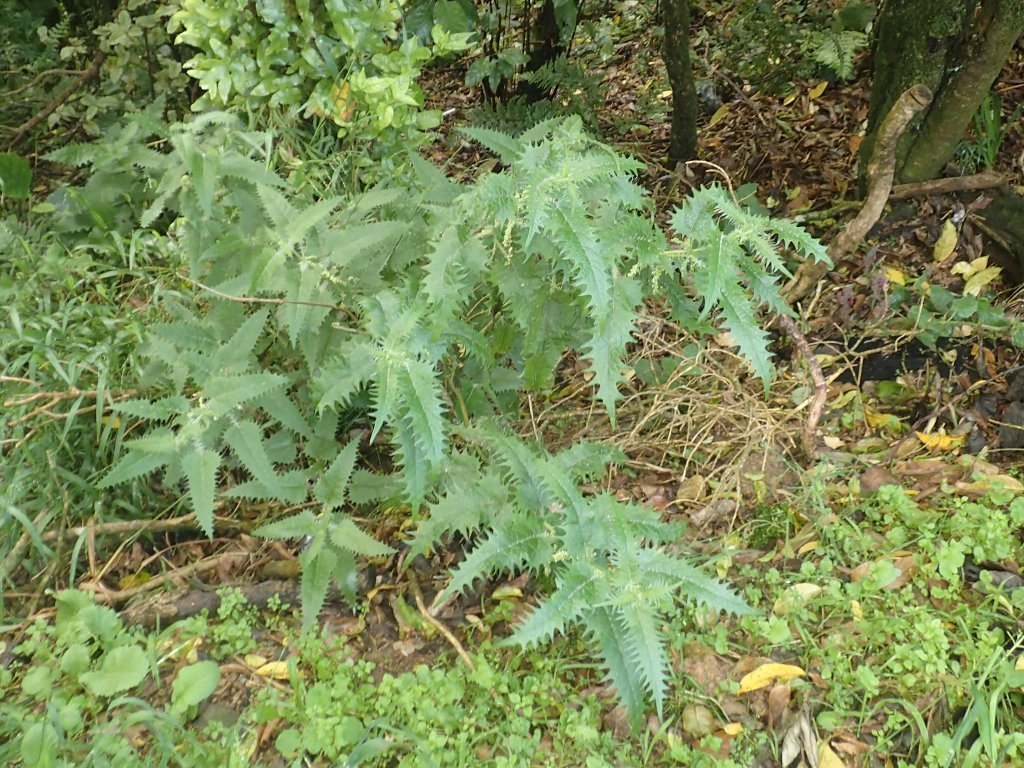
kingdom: Plantae
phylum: Tracheophyta
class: Magnoliopsida
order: Rosales
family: Urticaceae
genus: Urtica
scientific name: Urtica ferox
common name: Tree nettle
